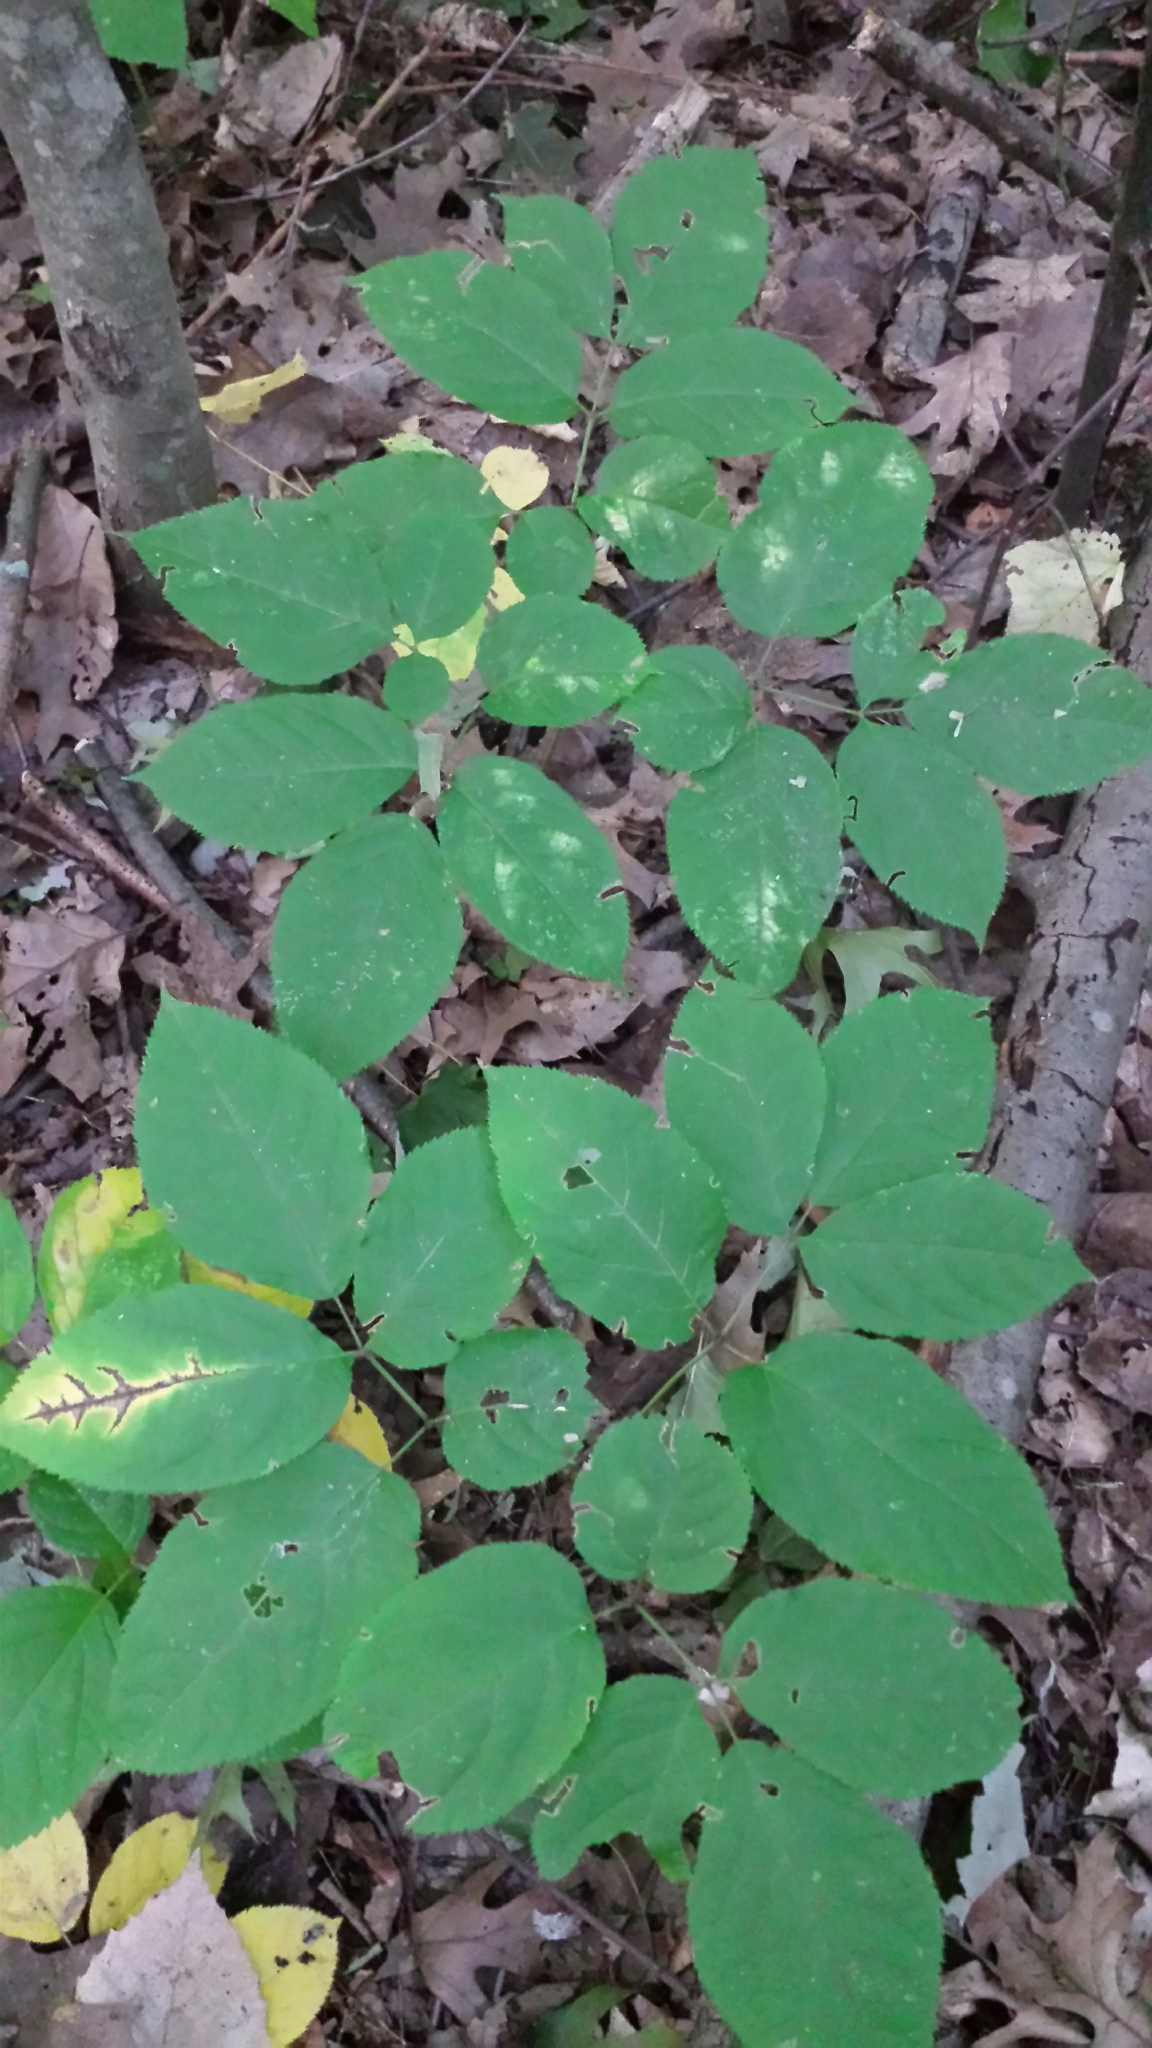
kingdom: Plantae
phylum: Tracheophyta
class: Magnoliopsida
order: Apiales
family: Araliaceae
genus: Aralia
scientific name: Aralia nudicaulis
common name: Wild sarsaparilla
